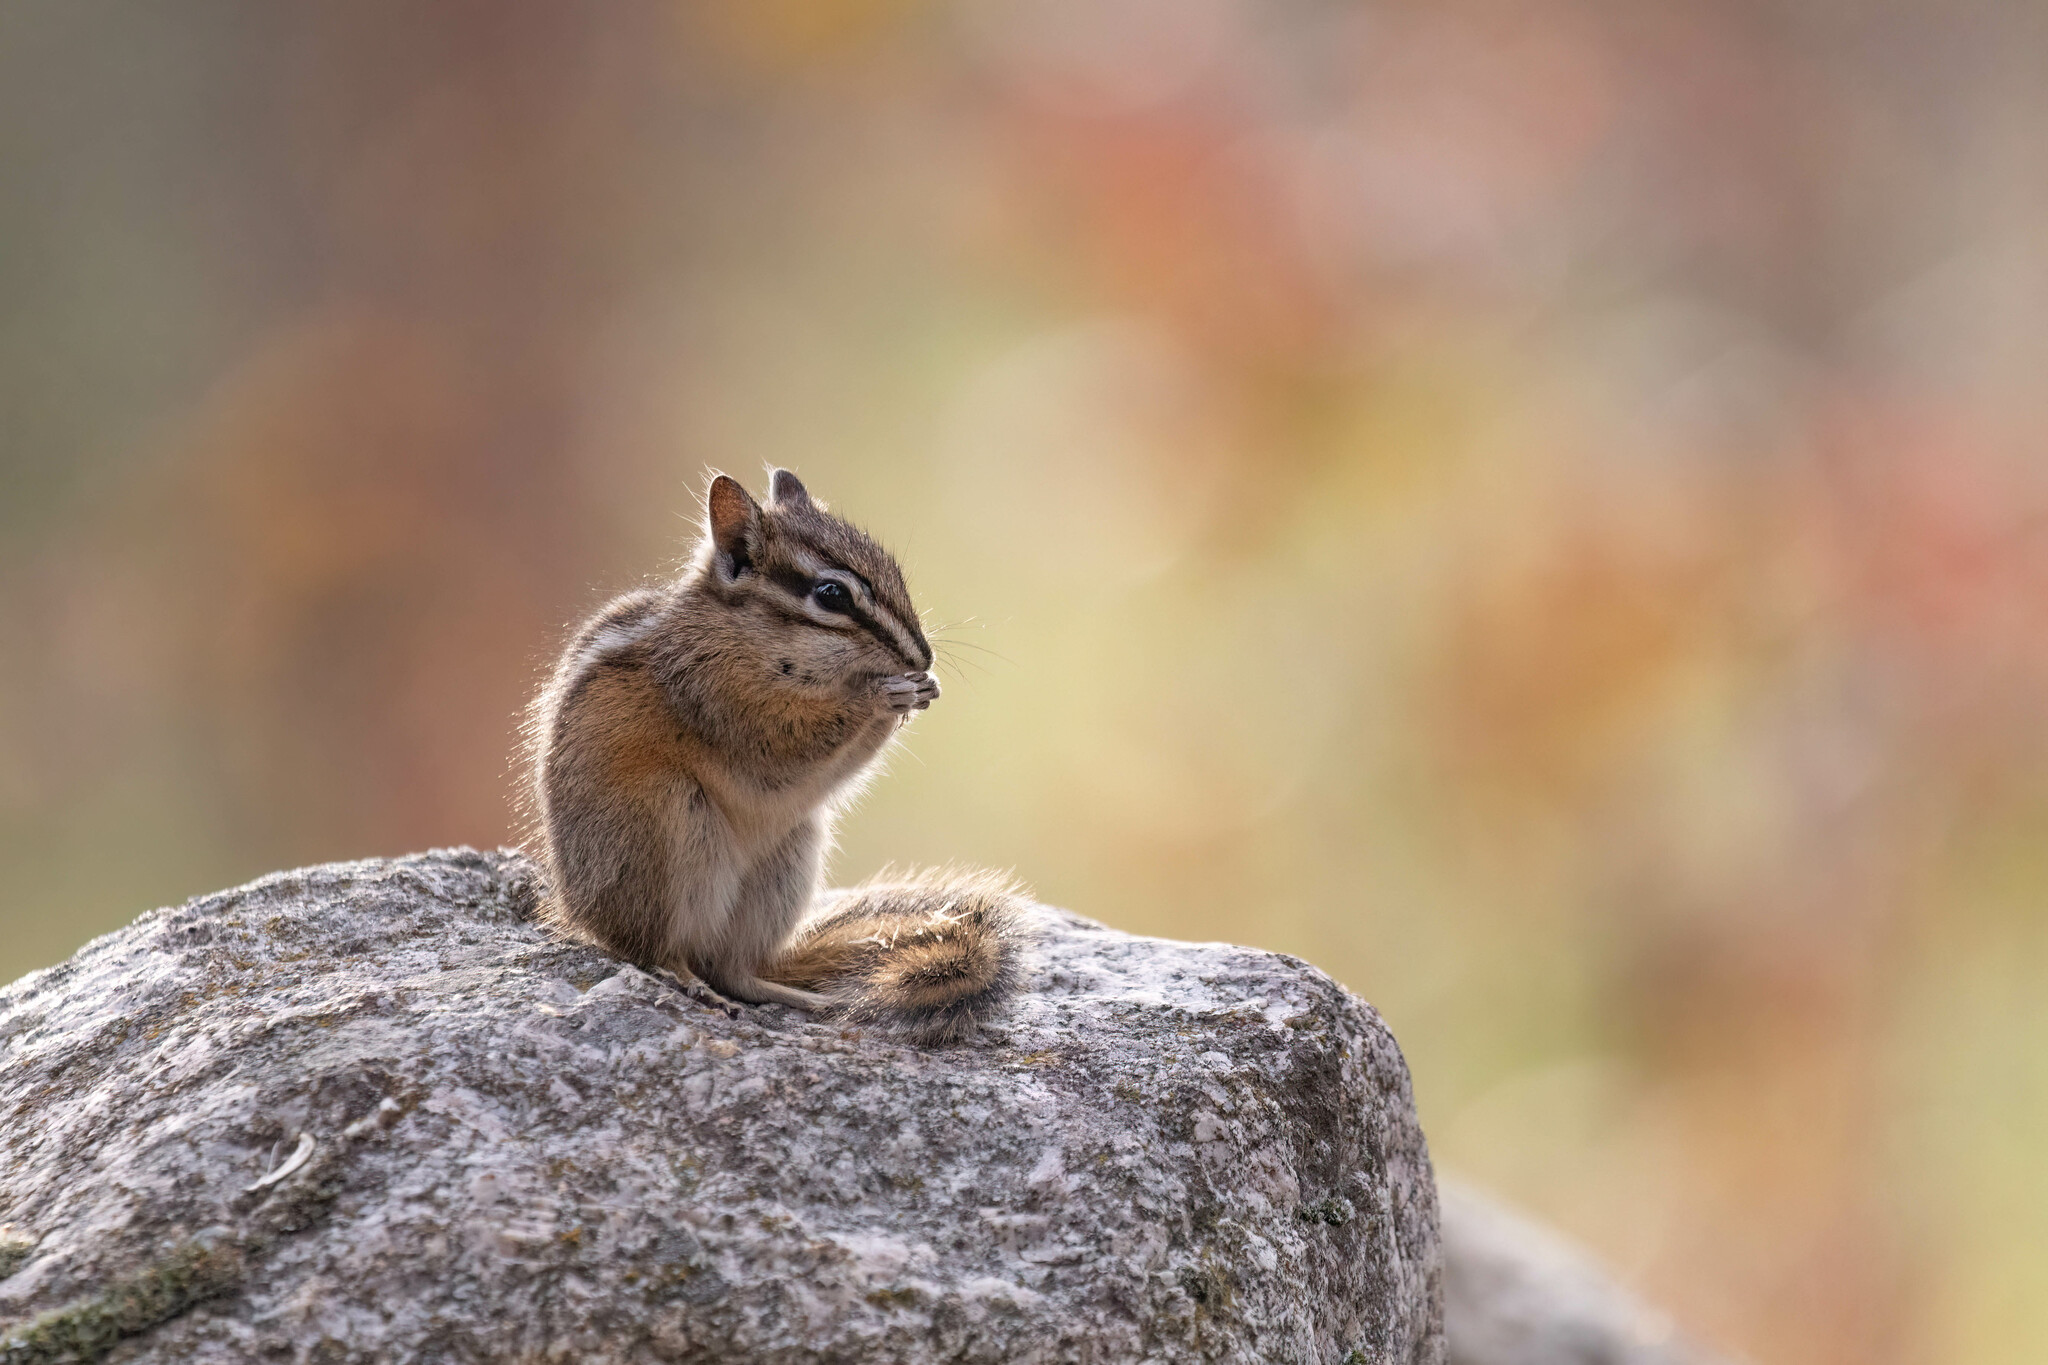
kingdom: Animalia
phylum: Chordata
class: Mammalia
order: Rodentia
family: Sciuridae
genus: Tamias
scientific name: Tamias amoenus
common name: Yellow-pine chipmunk
